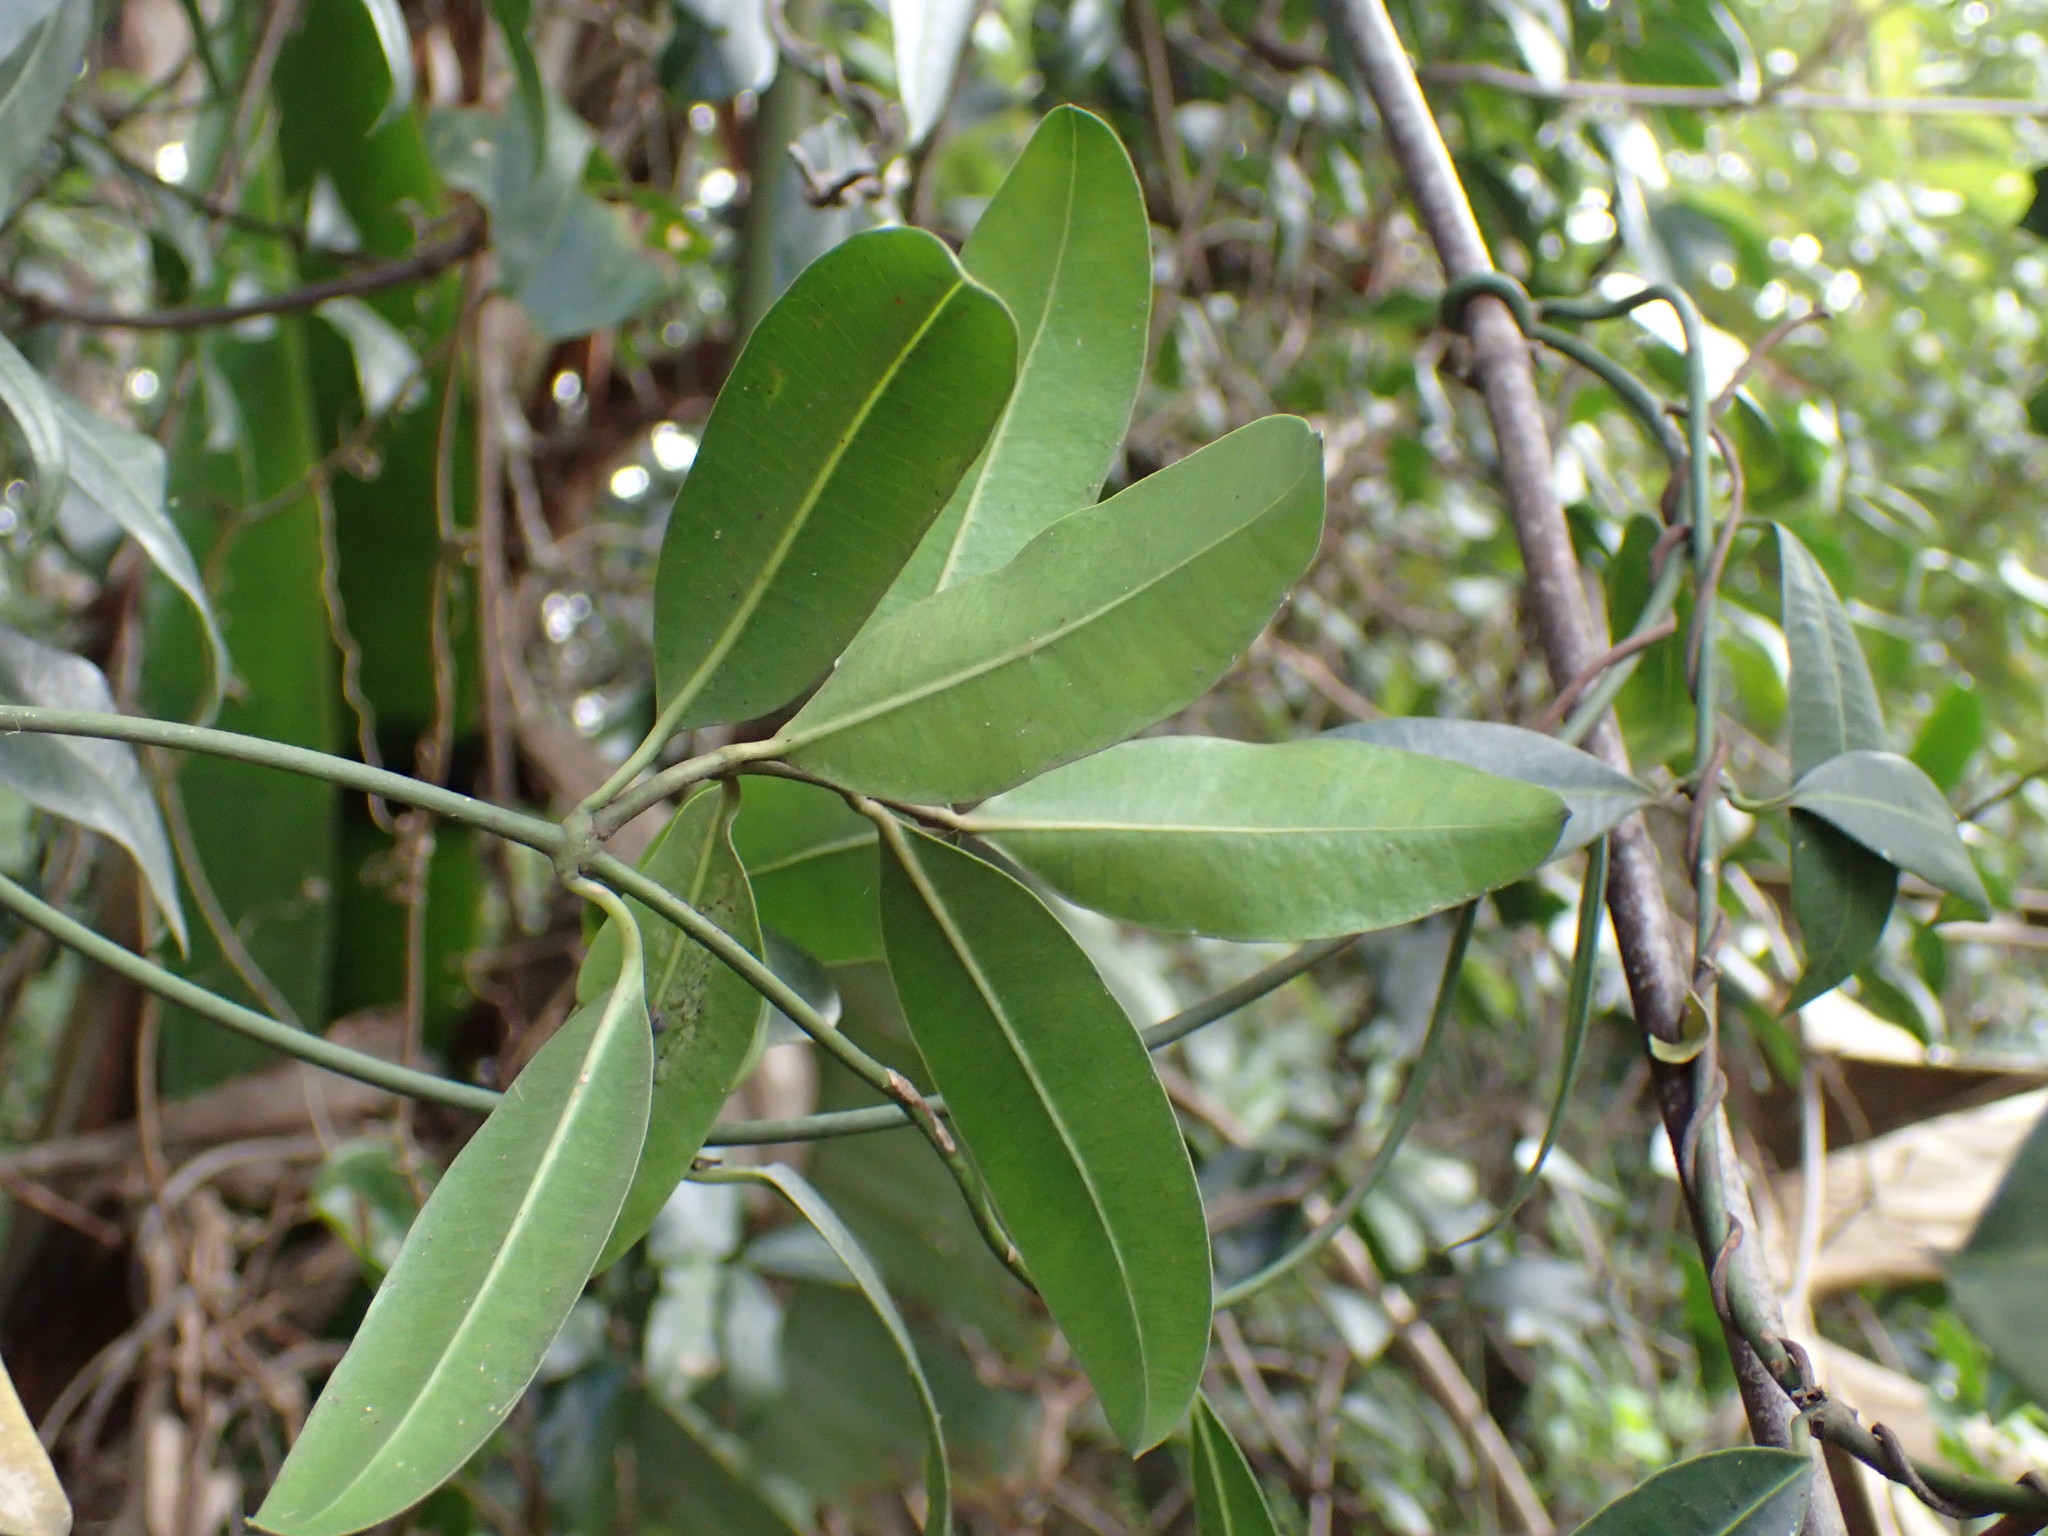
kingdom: Plantae
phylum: Tracheophyta
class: Magnoliopsida
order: Gentianales
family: Apocynaceae
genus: Secamone
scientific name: Secamone gerrardii
